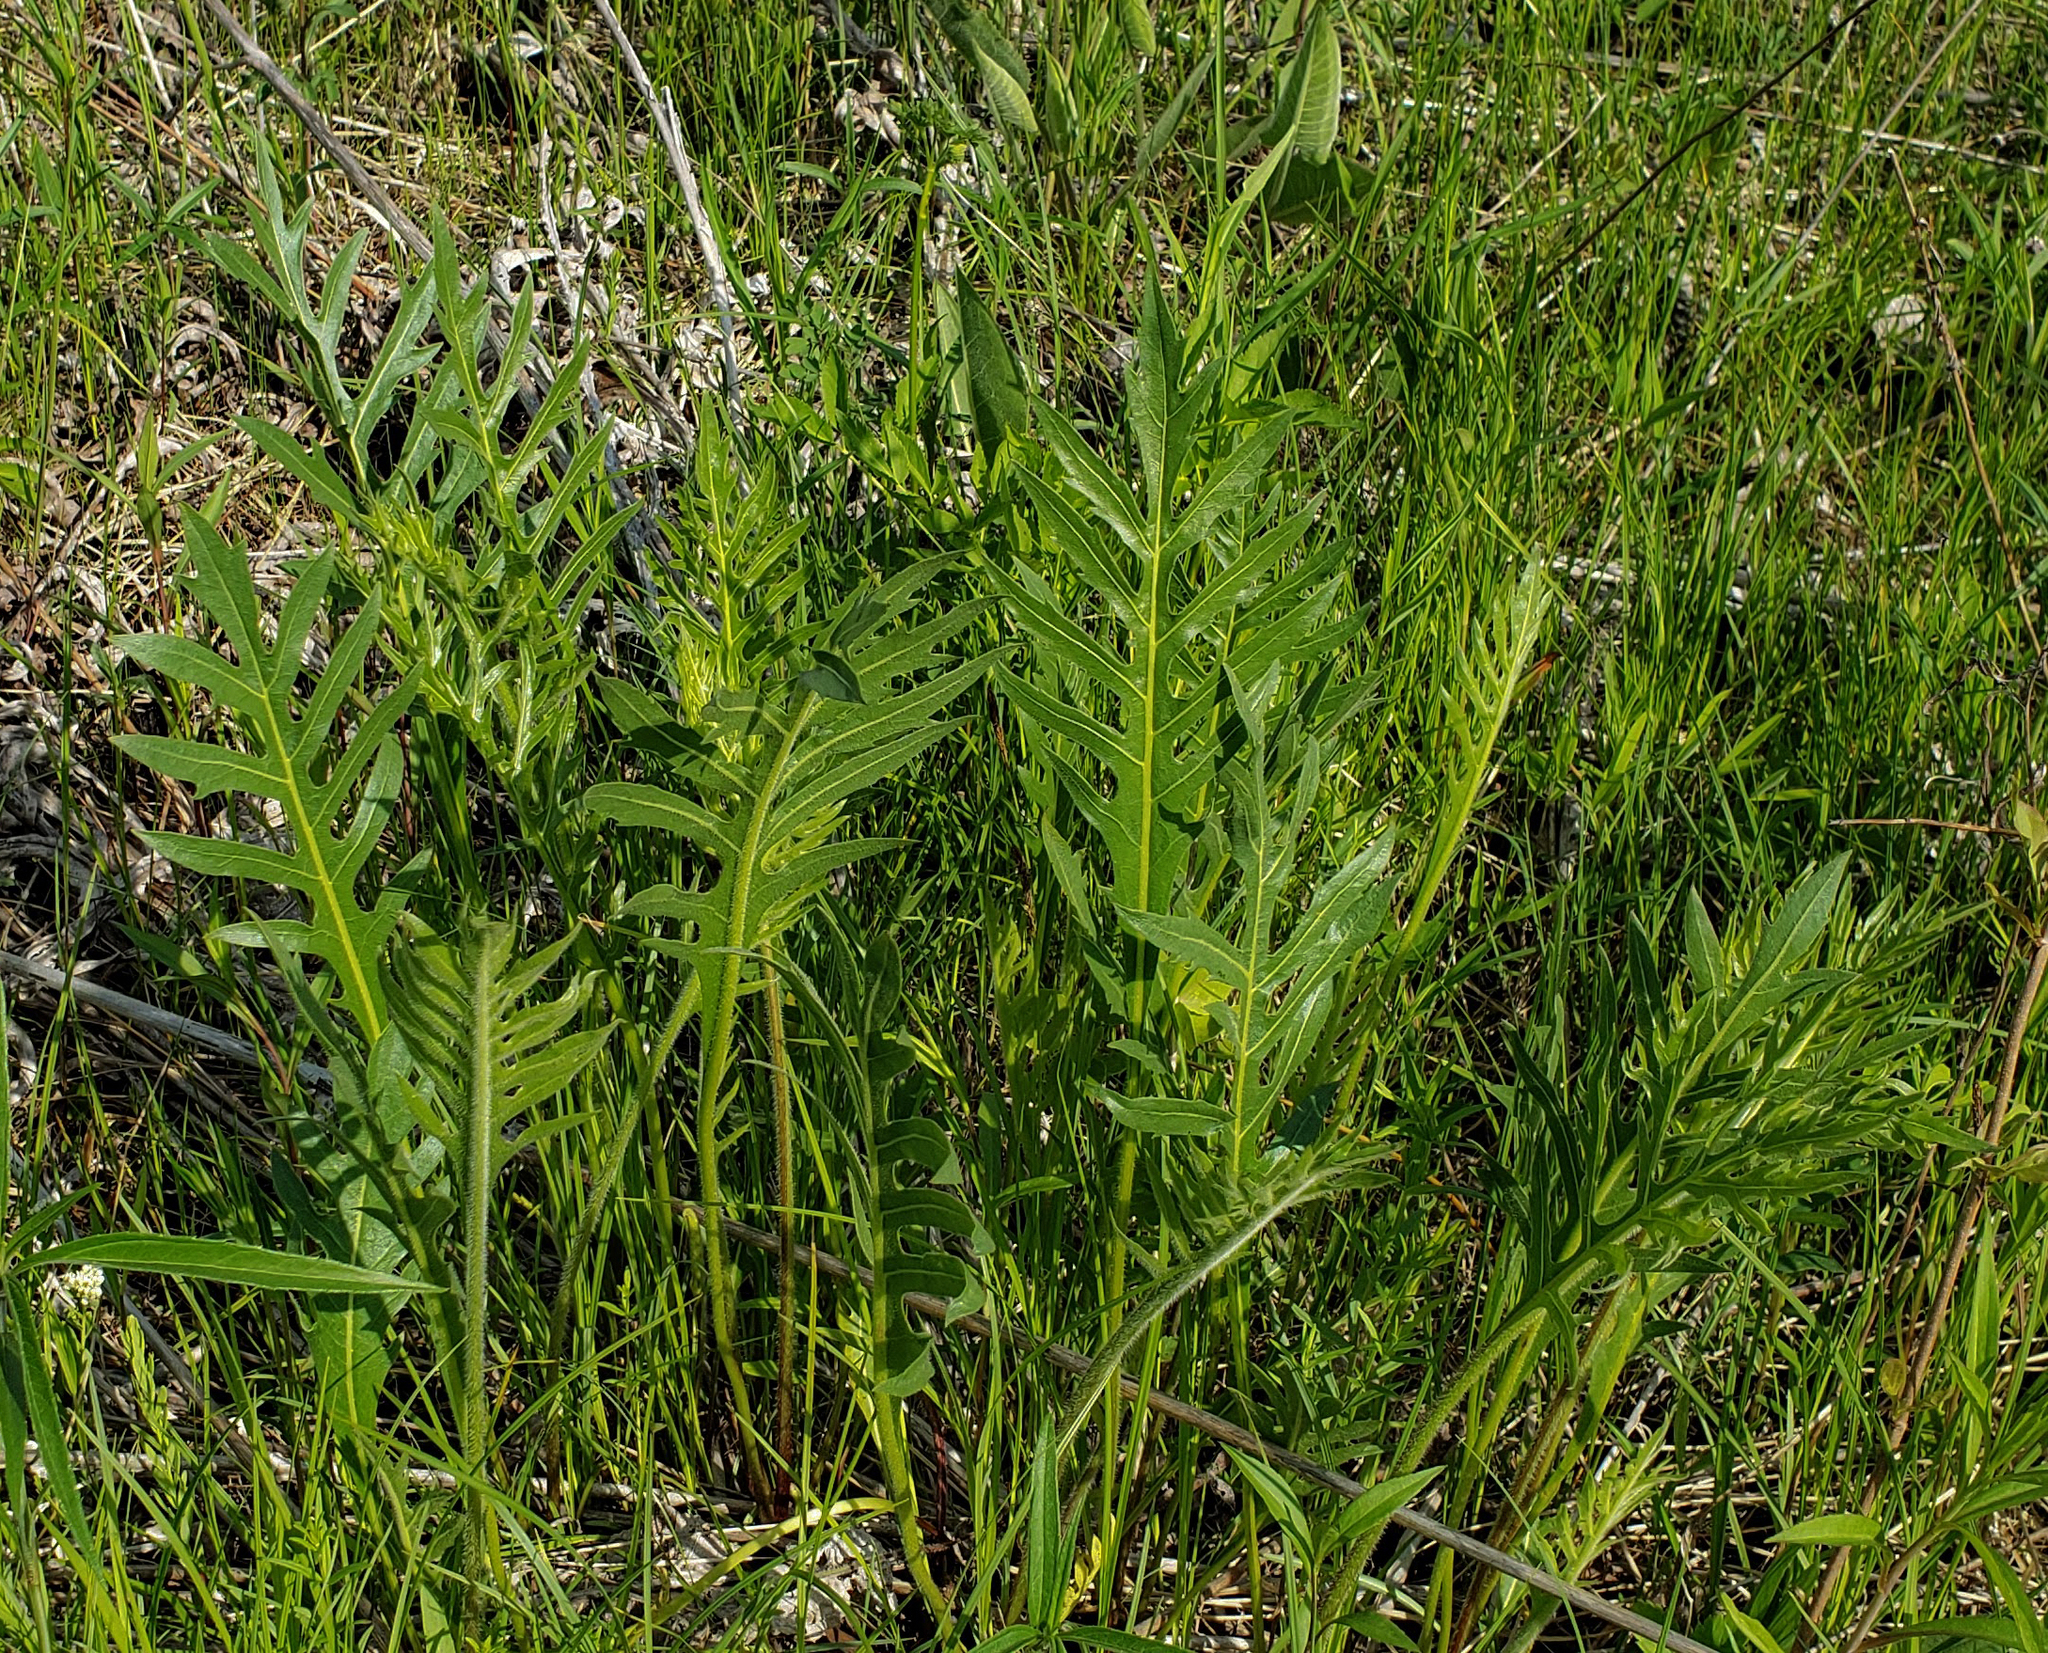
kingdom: Plantae
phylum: Tracheophyta
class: Magnoliopsida
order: Asterales
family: Asteraceae
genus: Silphium
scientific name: Silphium laciniatum
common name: Polarplant
